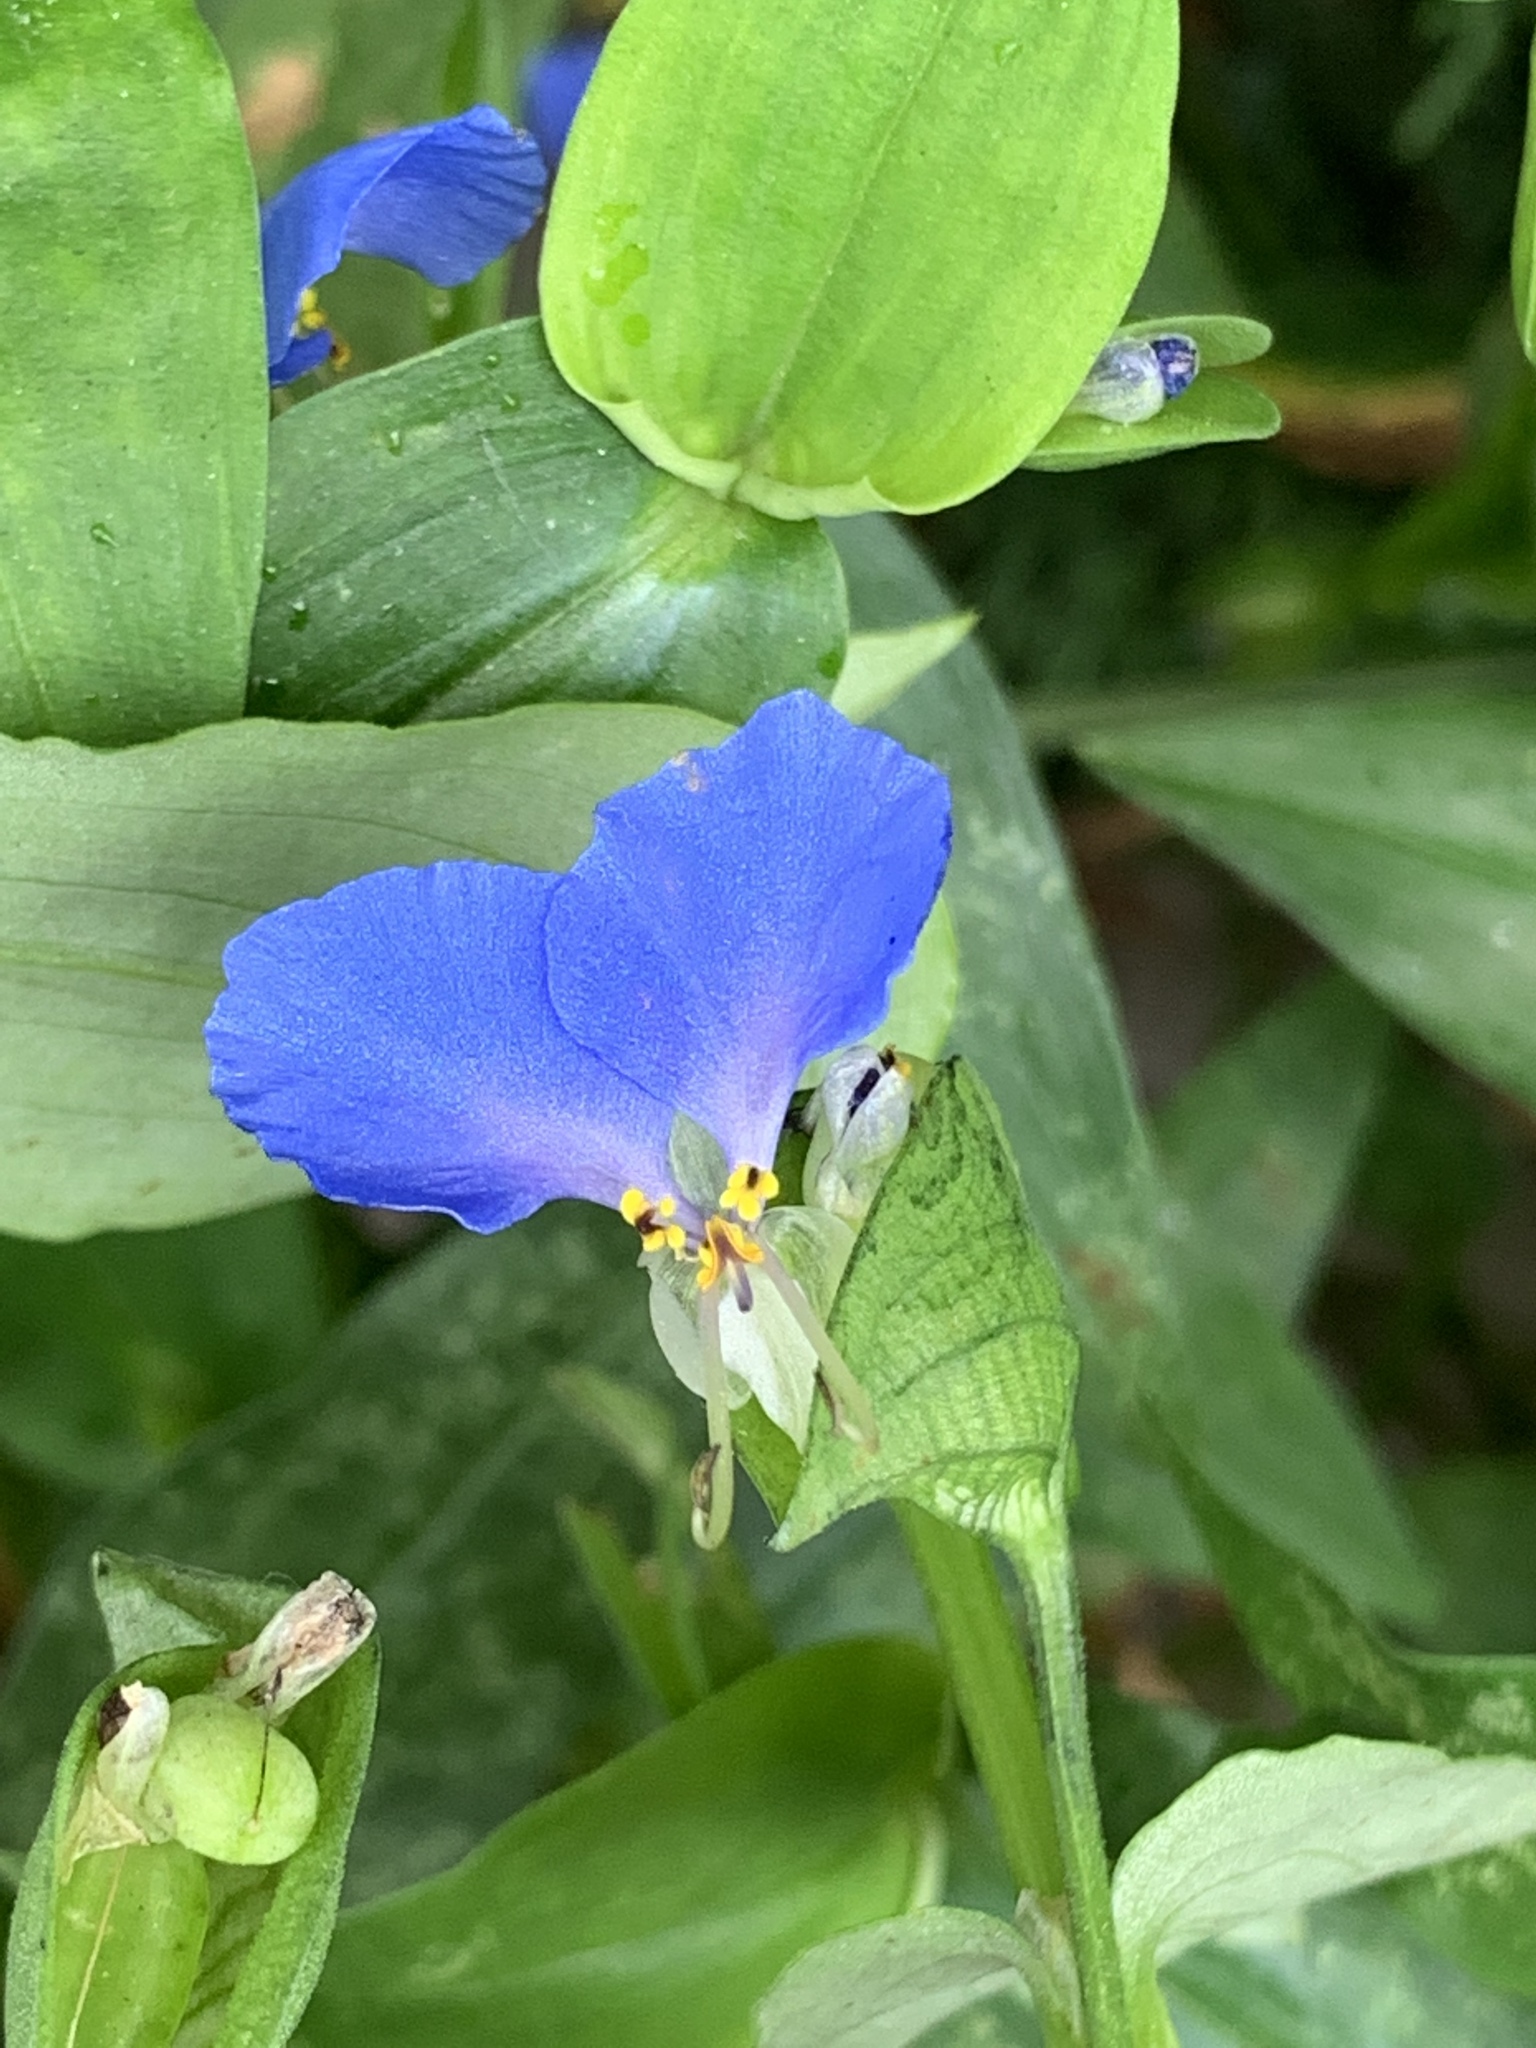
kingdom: Plantae
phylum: Tracheophyta
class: Liliopsida
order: Commelinales
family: Commelinaceae
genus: Commelina
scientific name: Commelina communis
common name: Asiatic dayflower
